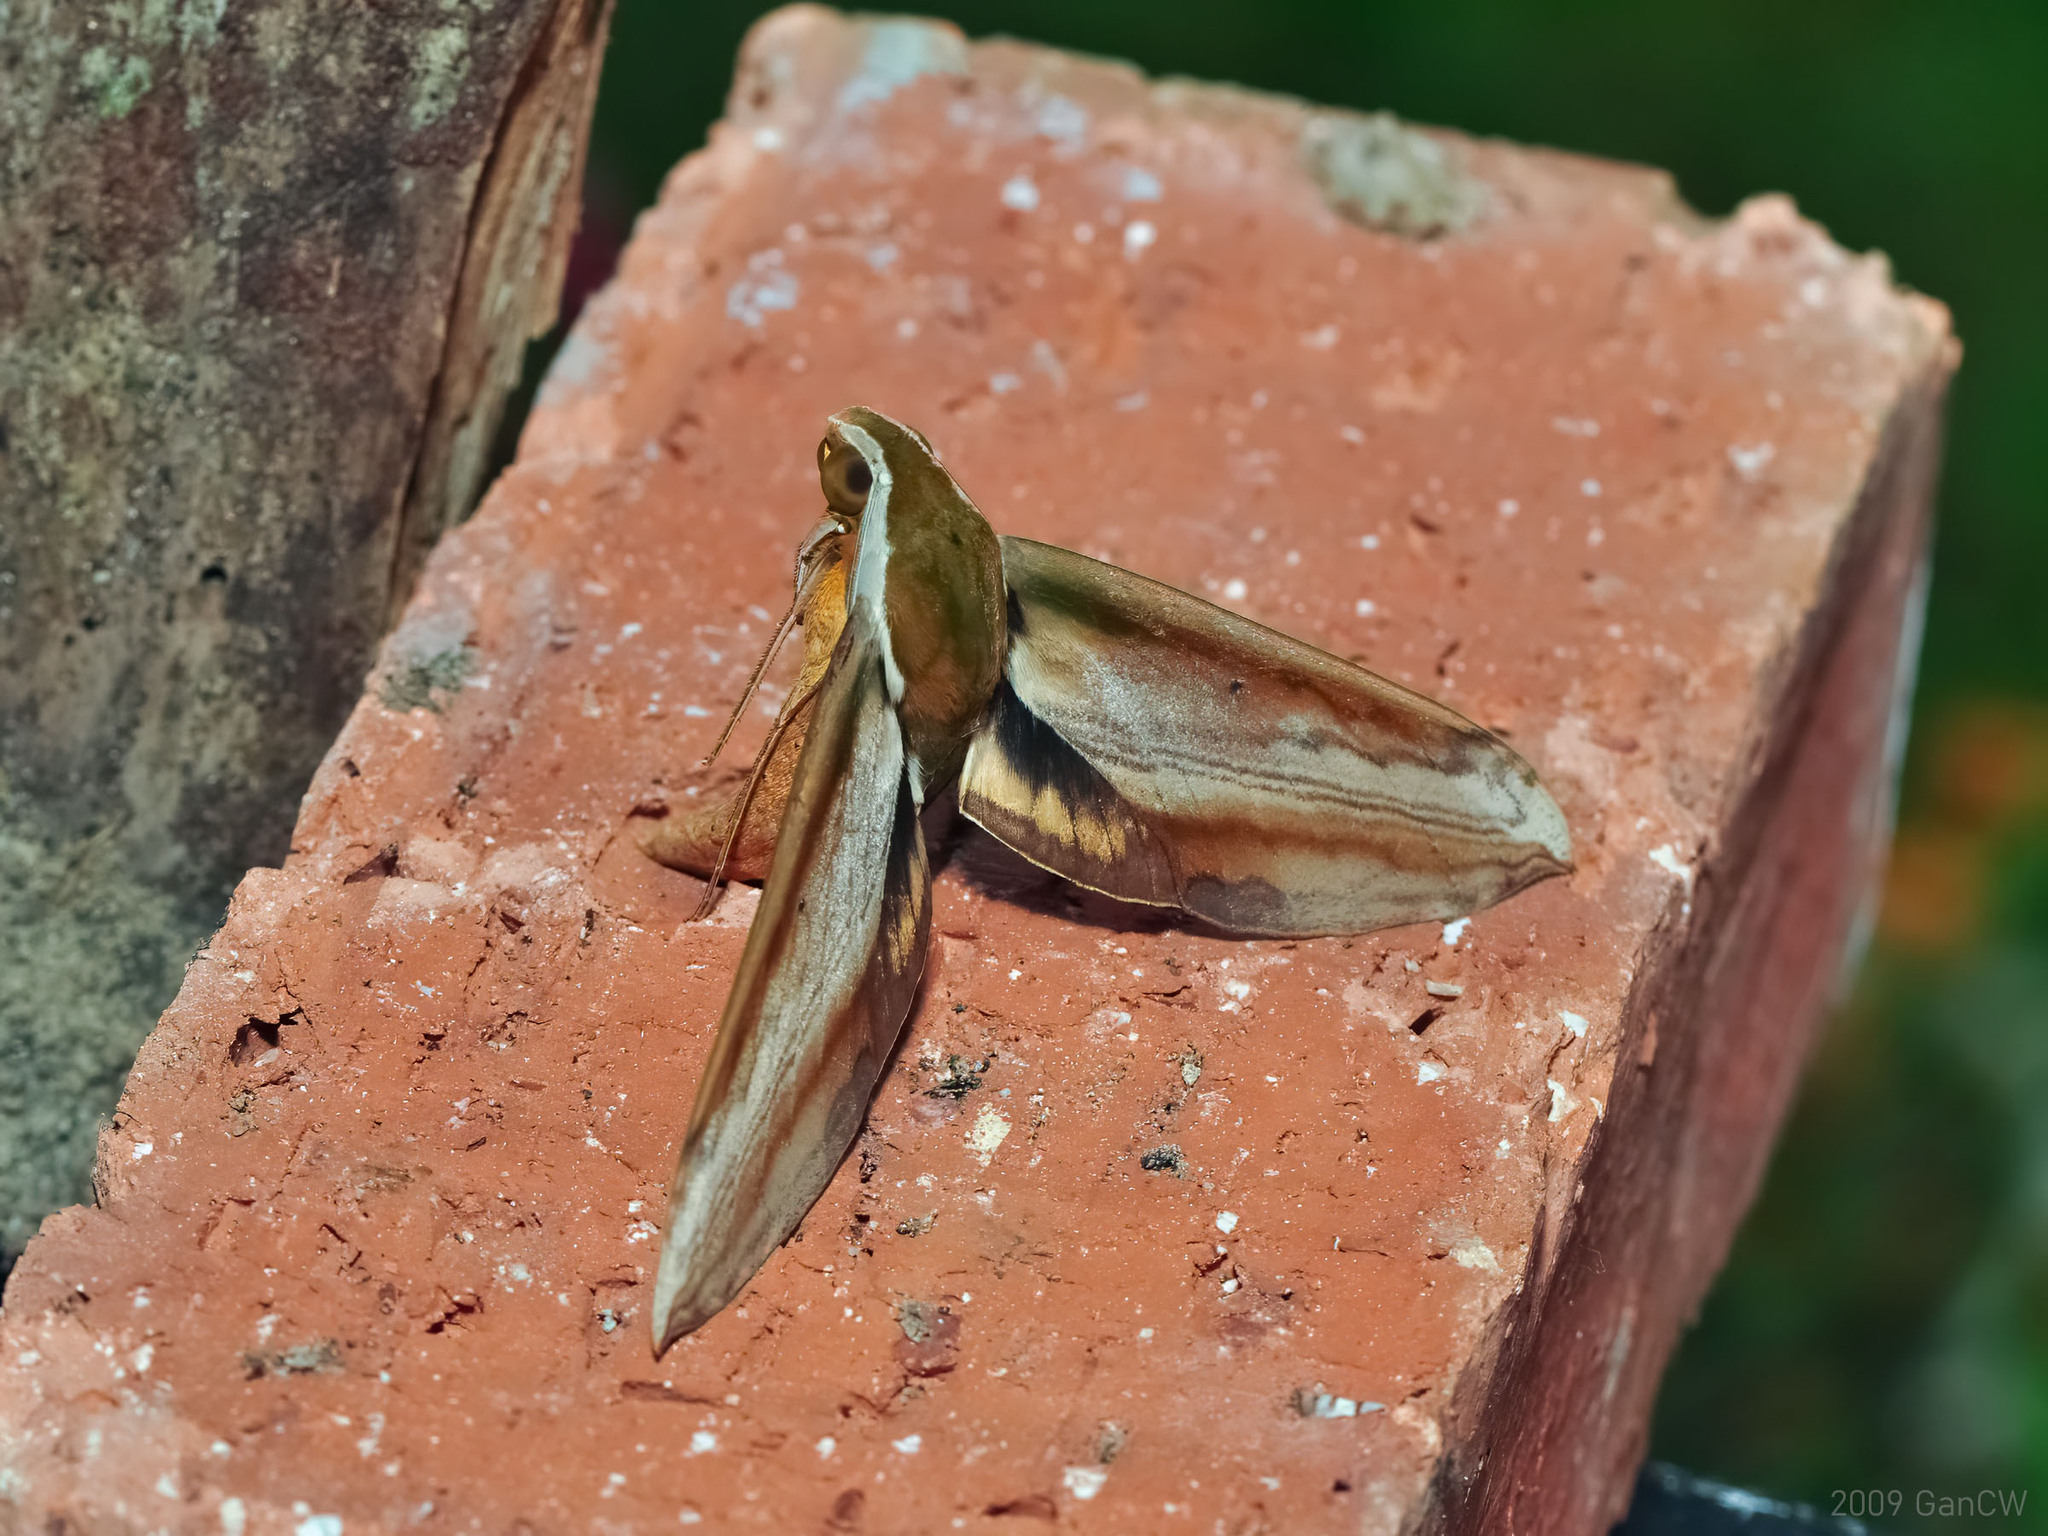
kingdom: Animalia
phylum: Arthropoda
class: Insecta
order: Lepidoptera
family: Sphingidae
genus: Theretra
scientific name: Theretra nessus
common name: Yam hawk moth
